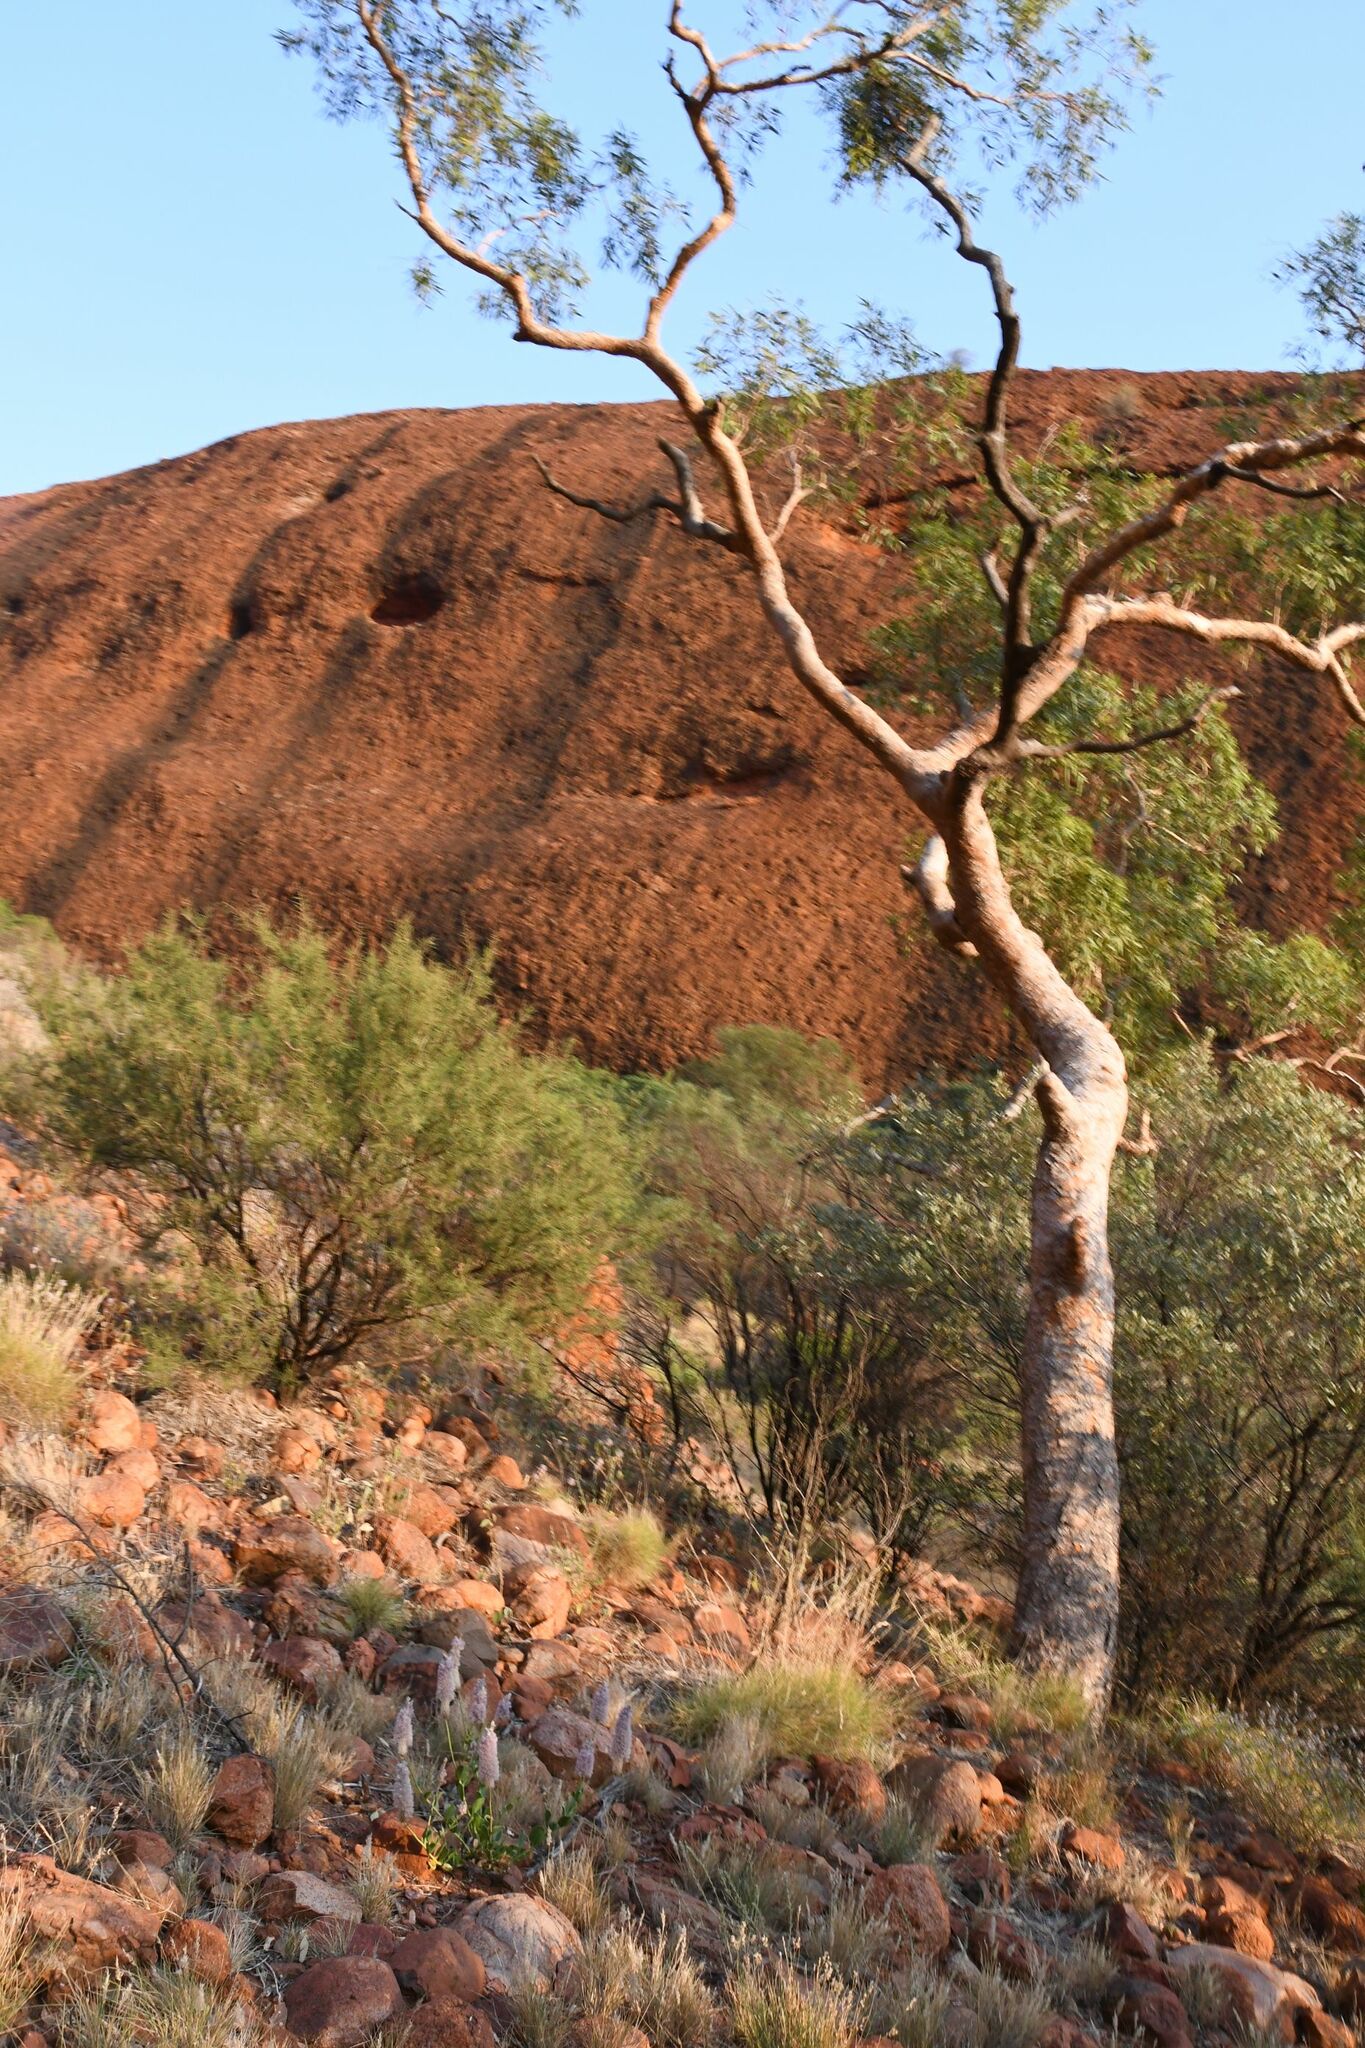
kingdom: Plantae
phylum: Tracheophyta
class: Magnoliopsida
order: Myrtales
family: Myrtaceae
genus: Corymbia
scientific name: Corymbia opaca
